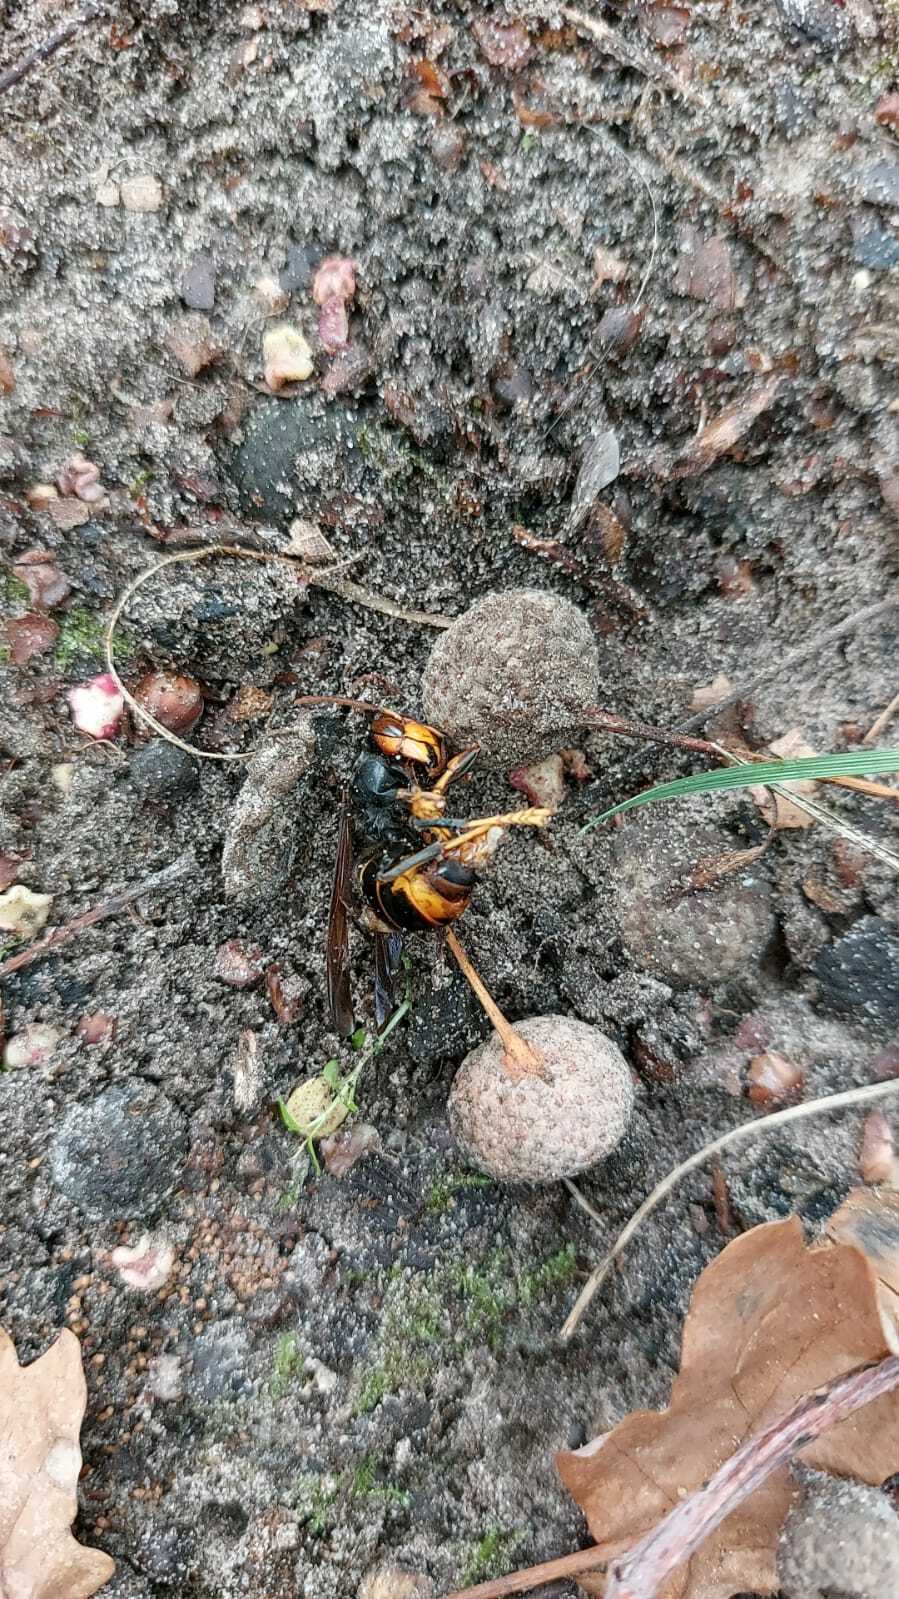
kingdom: Animalia
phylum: Arthropoda
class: Insecta
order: Hymenoptera
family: Vespidae
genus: Vespa
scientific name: Vespa velutina
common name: Asian hornet
